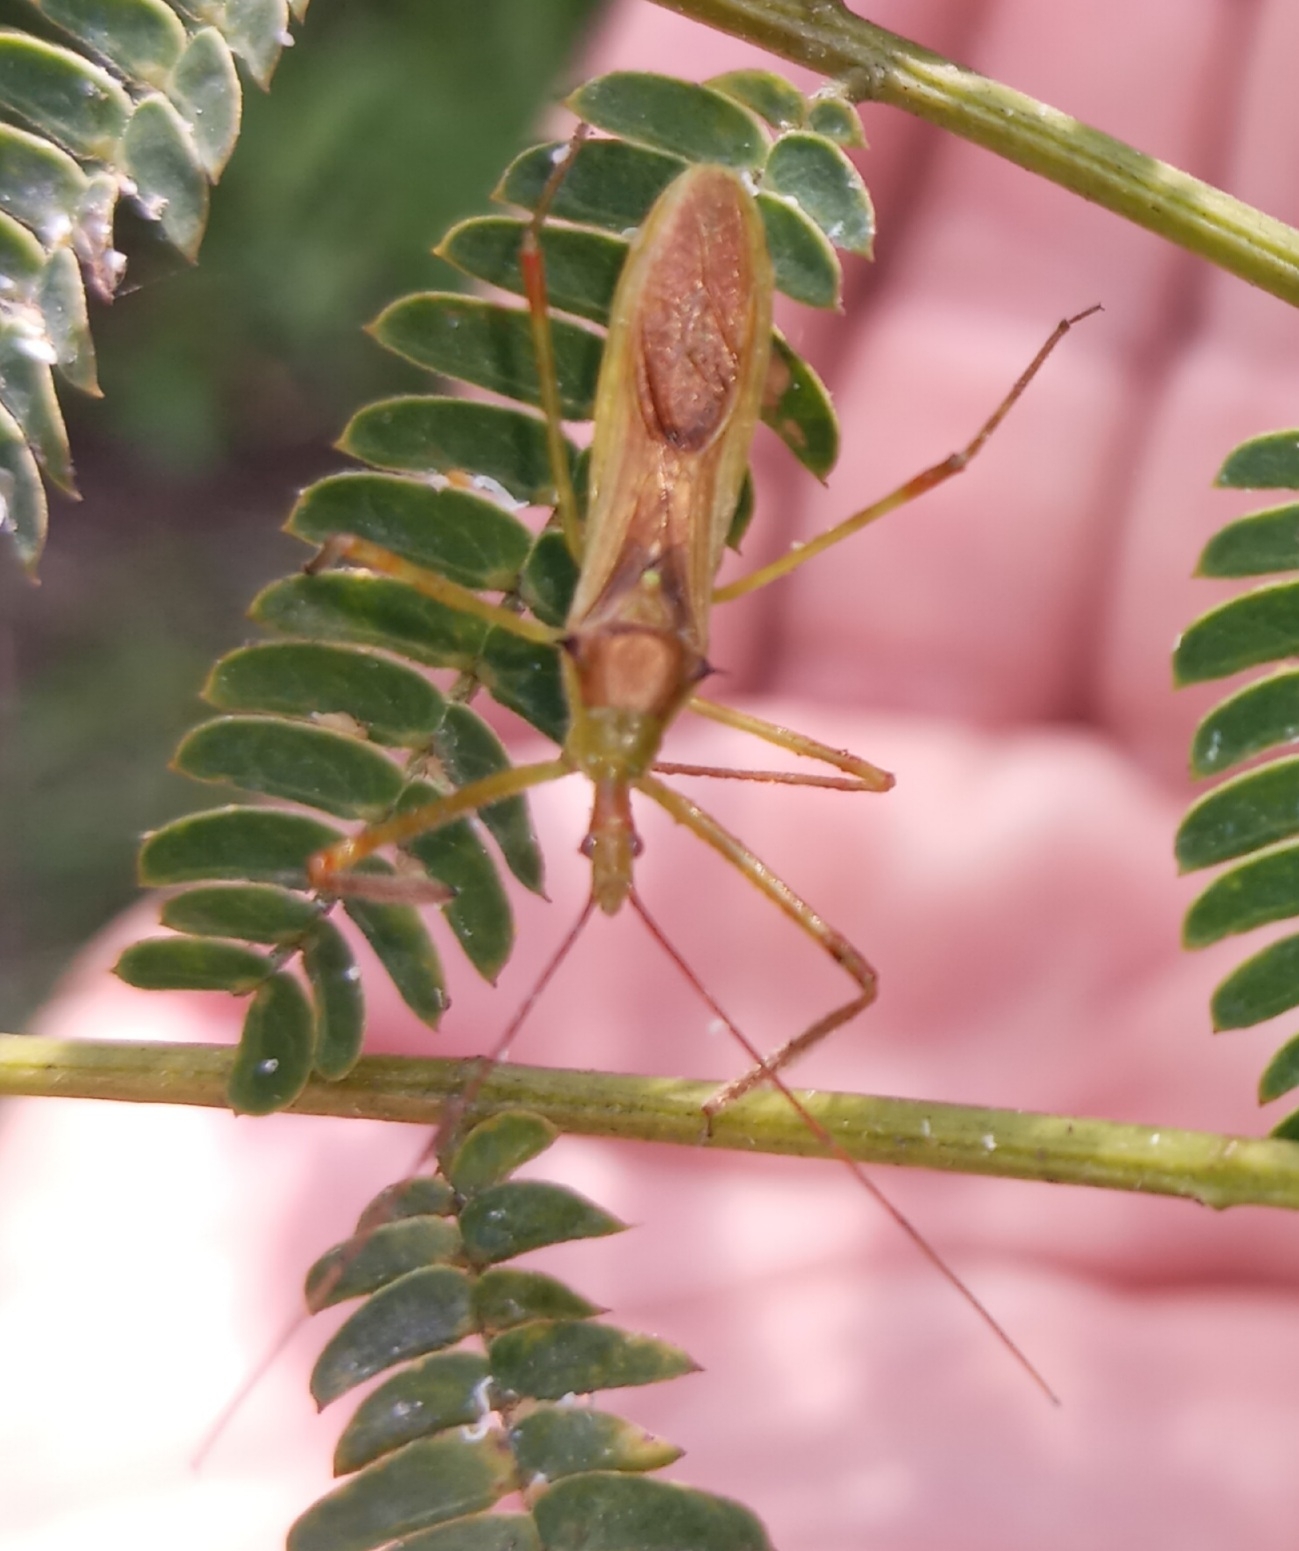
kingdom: Animalia
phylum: Arthropoda
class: Insecta
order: Hemiptera
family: Reduviidae
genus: Zelus
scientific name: Zelus luridus
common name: Pale green assassin bug
